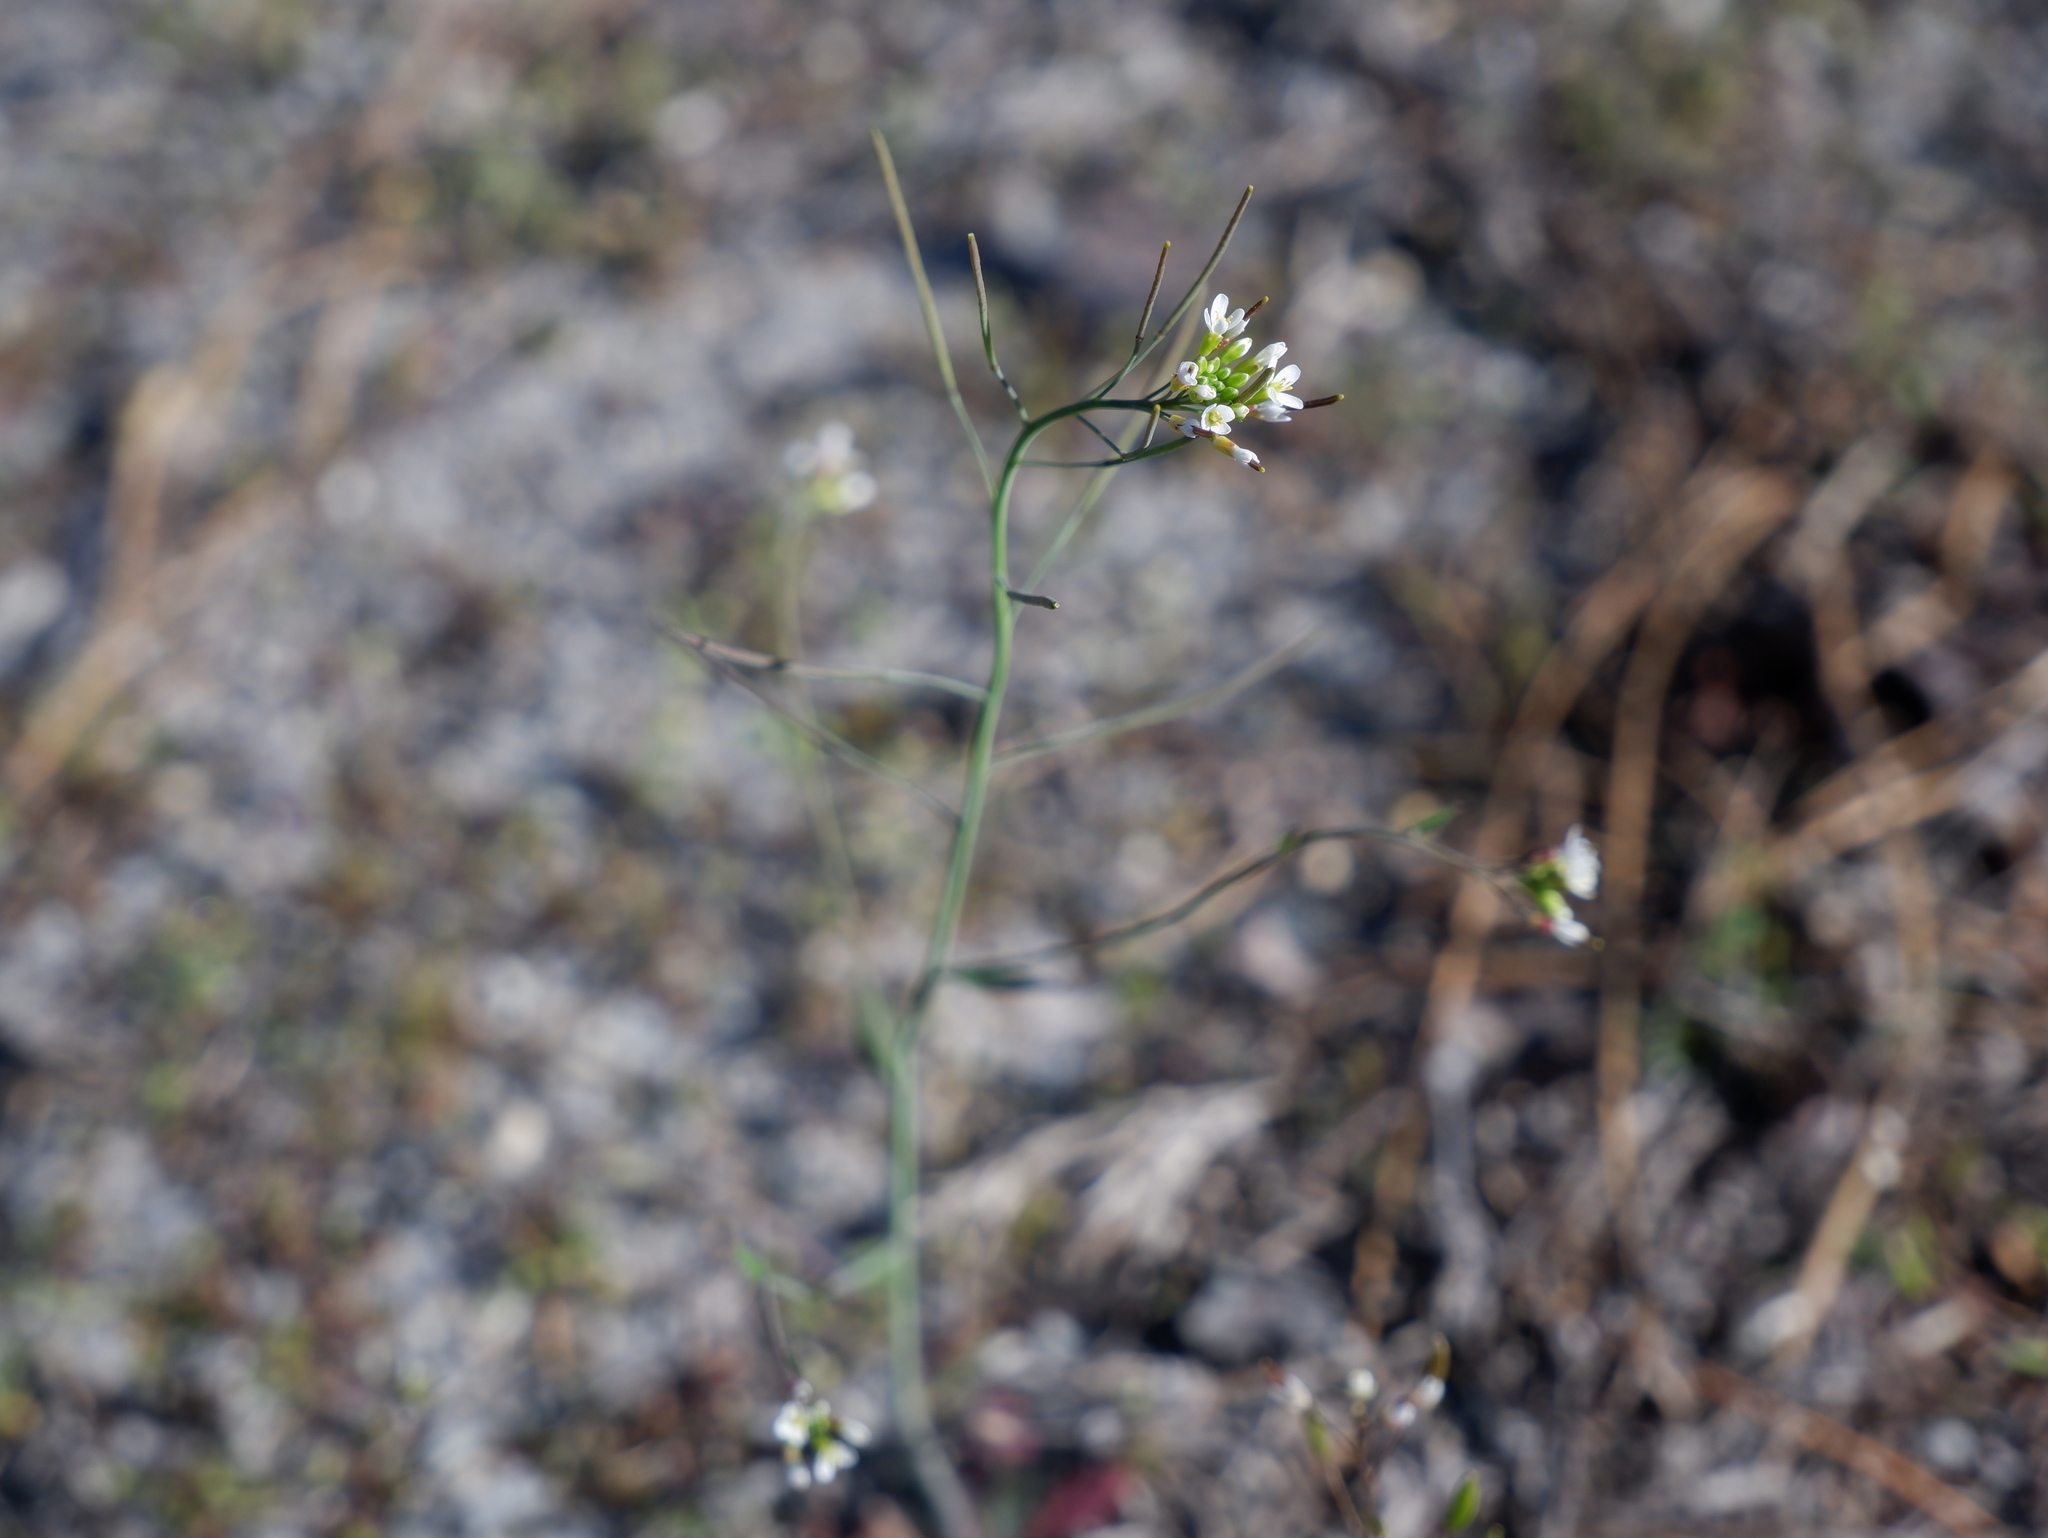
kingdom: Plantae
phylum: Tracheophyta
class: Magnoliopsida
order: Brassicales
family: Brassicaceae
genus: Arabidopsis
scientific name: Arabidopsis thaliana
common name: Thale cress
